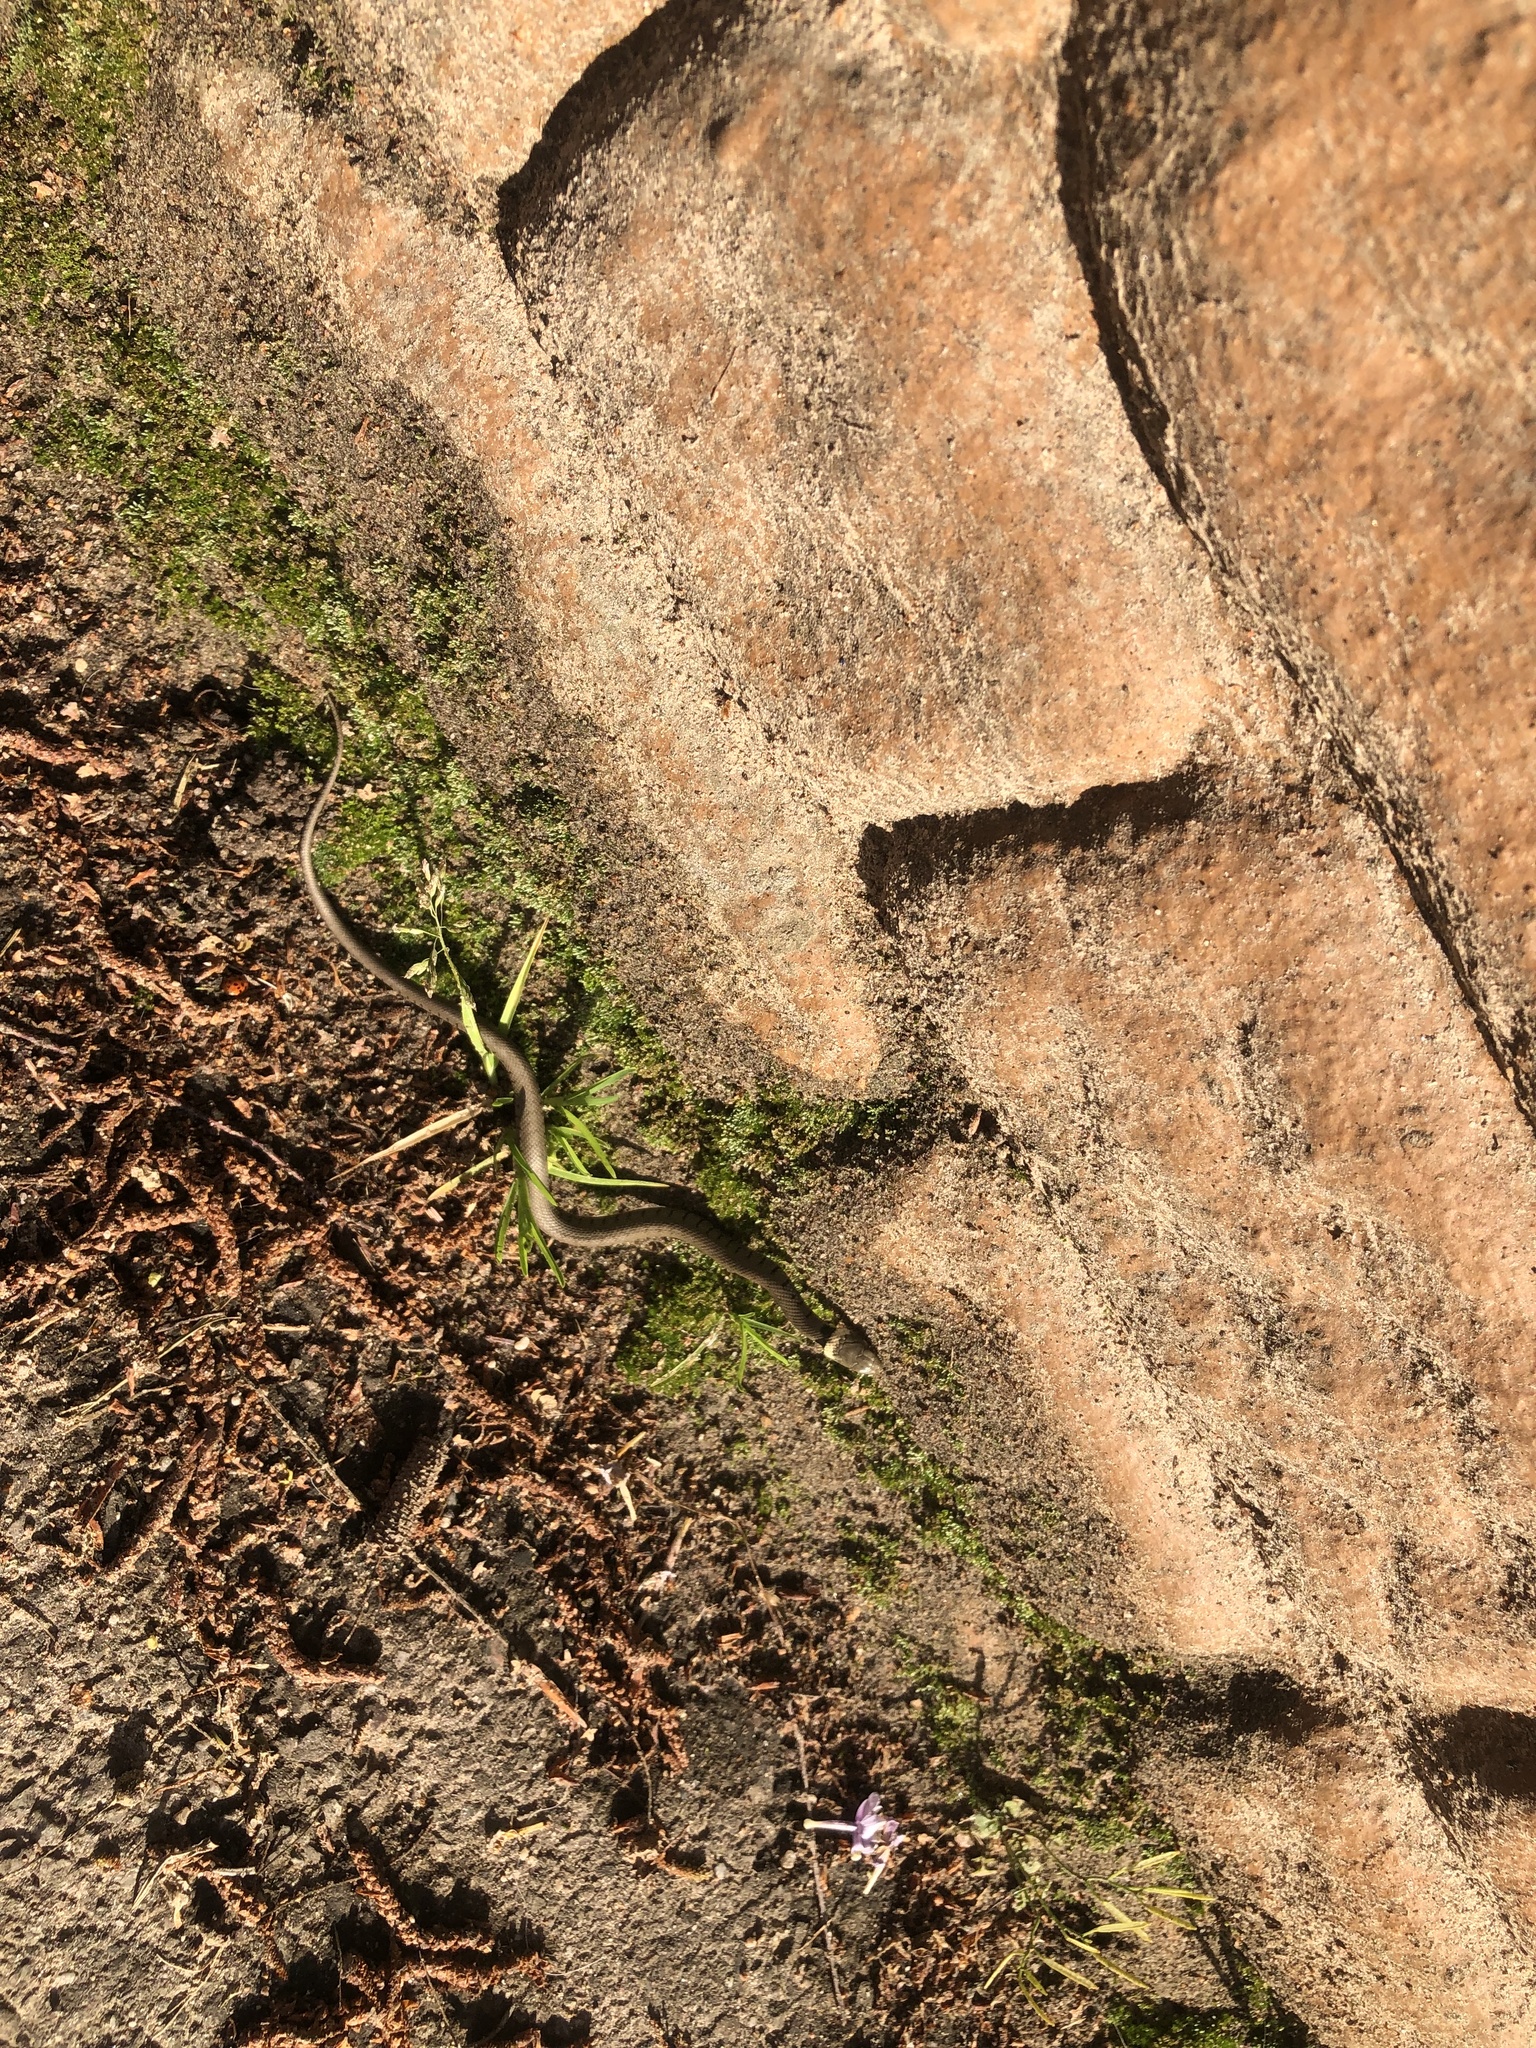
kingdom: Animalia
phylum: Chordata
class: Squamata
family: Colubridae
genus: Natrix
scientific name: Natrix helvetica
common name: Banded grass snake
